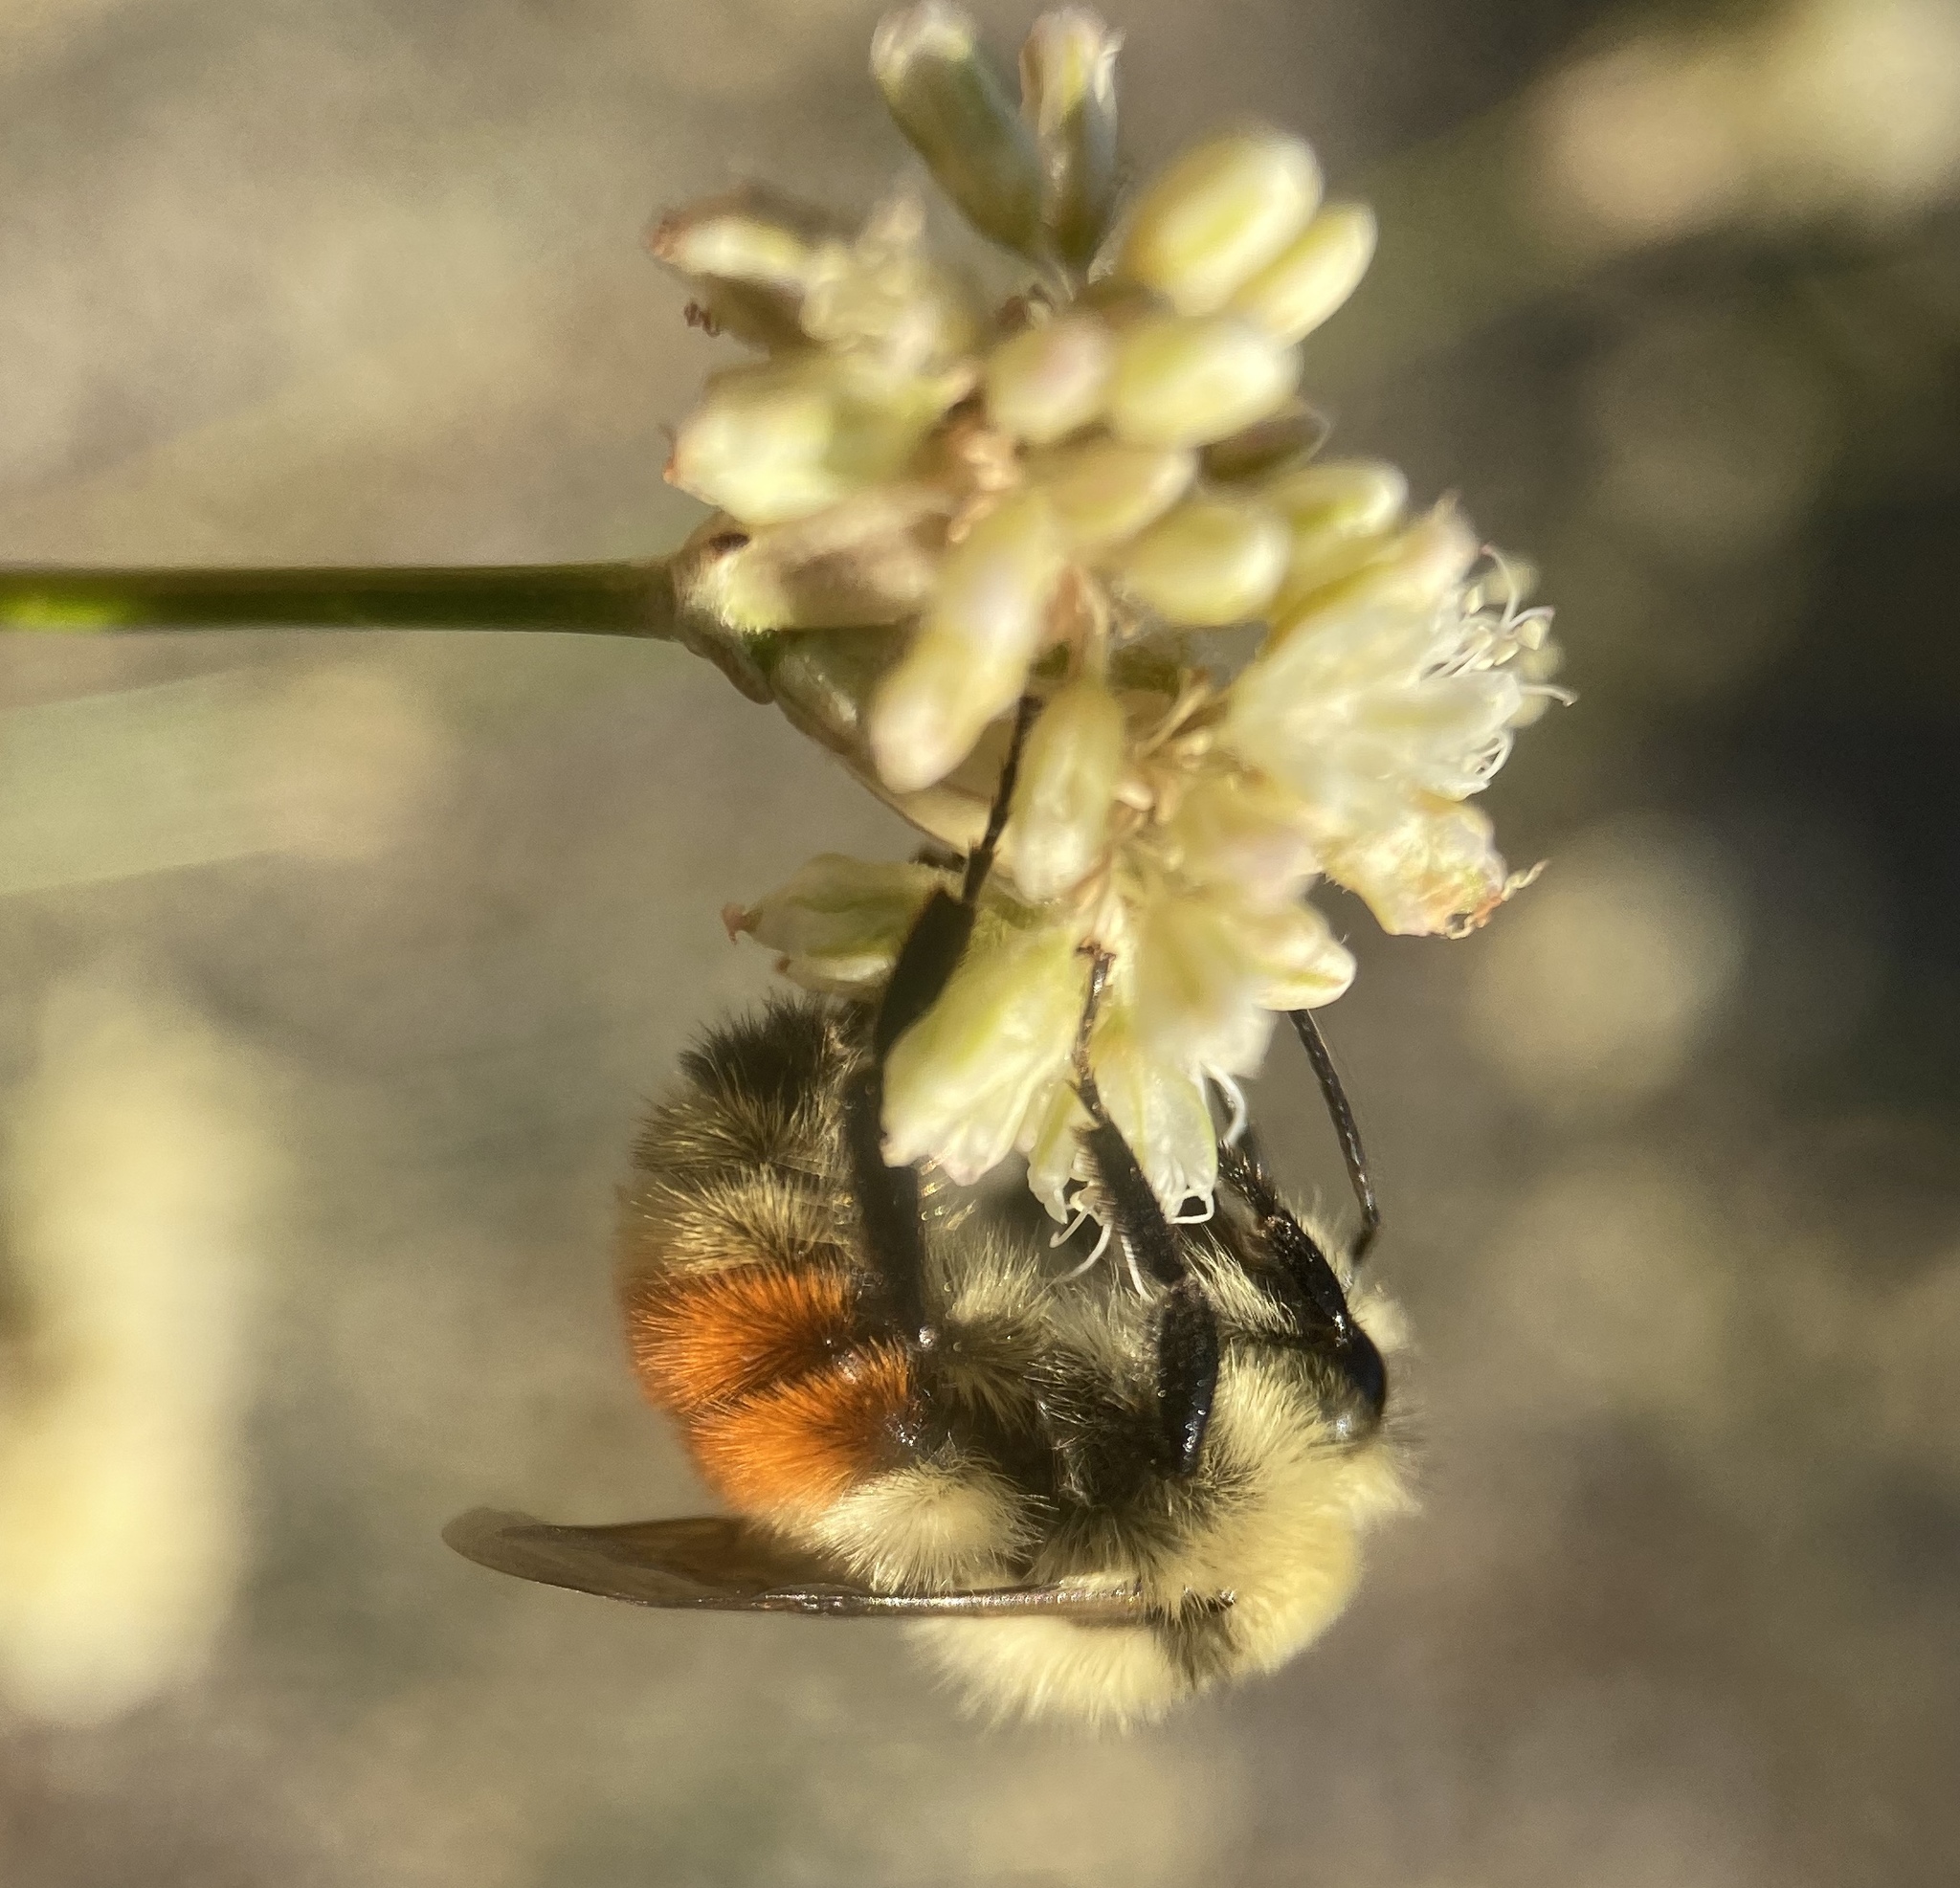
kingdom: Animalia
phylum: Arthropoda
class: Insecta
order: Hymenoptera
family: Apidae
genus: Bombus
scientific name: Bombus huntii
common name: Hunt bumble bee
